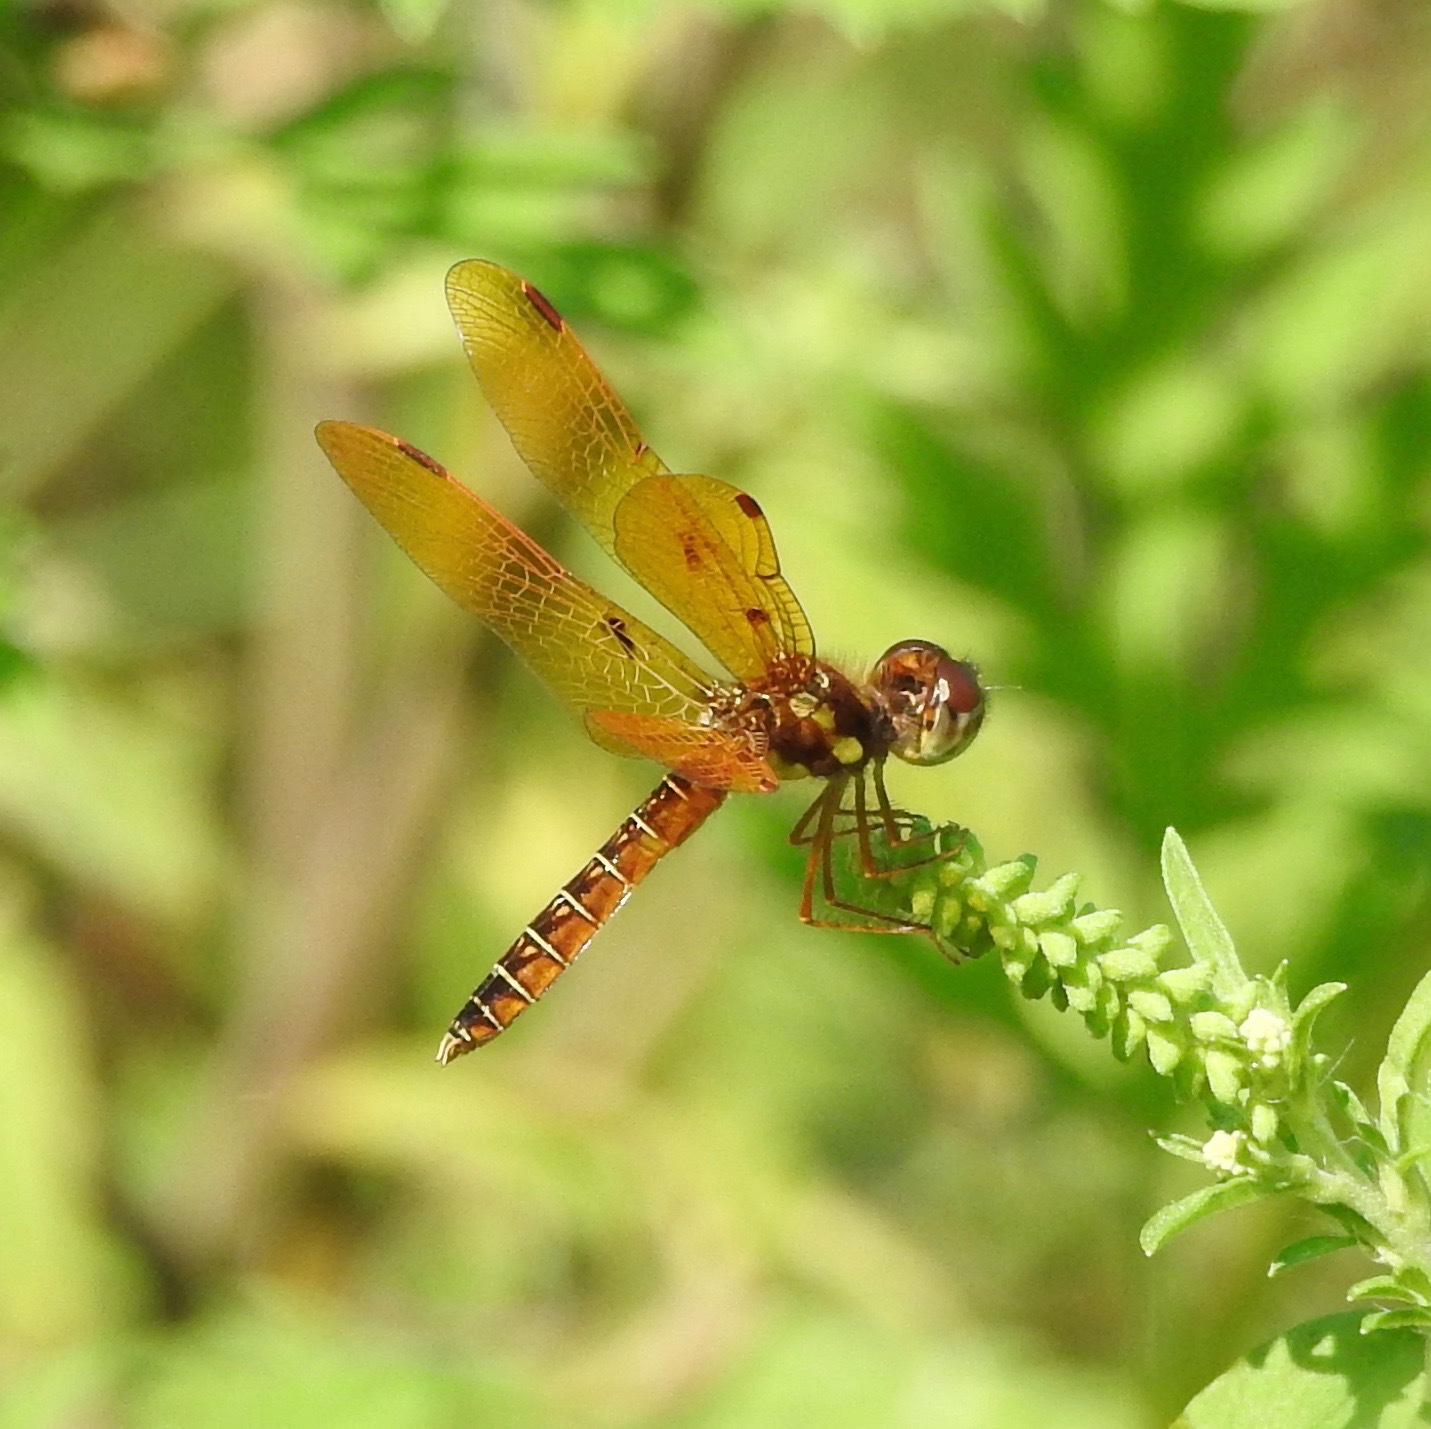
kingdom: Animalia
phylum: Arthropoda
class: Insecta
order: Odonata
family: Libellulidae
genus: Perithemis
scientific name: Perithemis tenera
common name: Eastern amberwing
